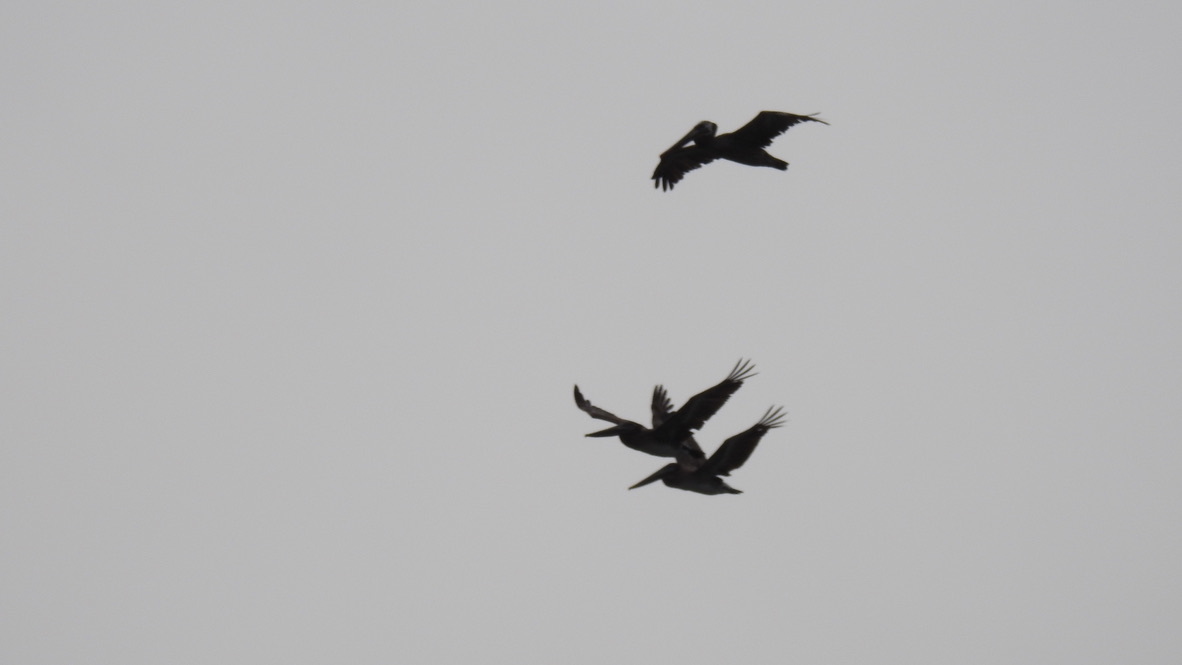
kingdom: Animalia
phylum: Chordata
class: Aves
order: Pelecaniformes
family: Pelecanidae
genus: Pelecanus
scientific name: Pelecanus occidentalis
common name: Brown pelican
